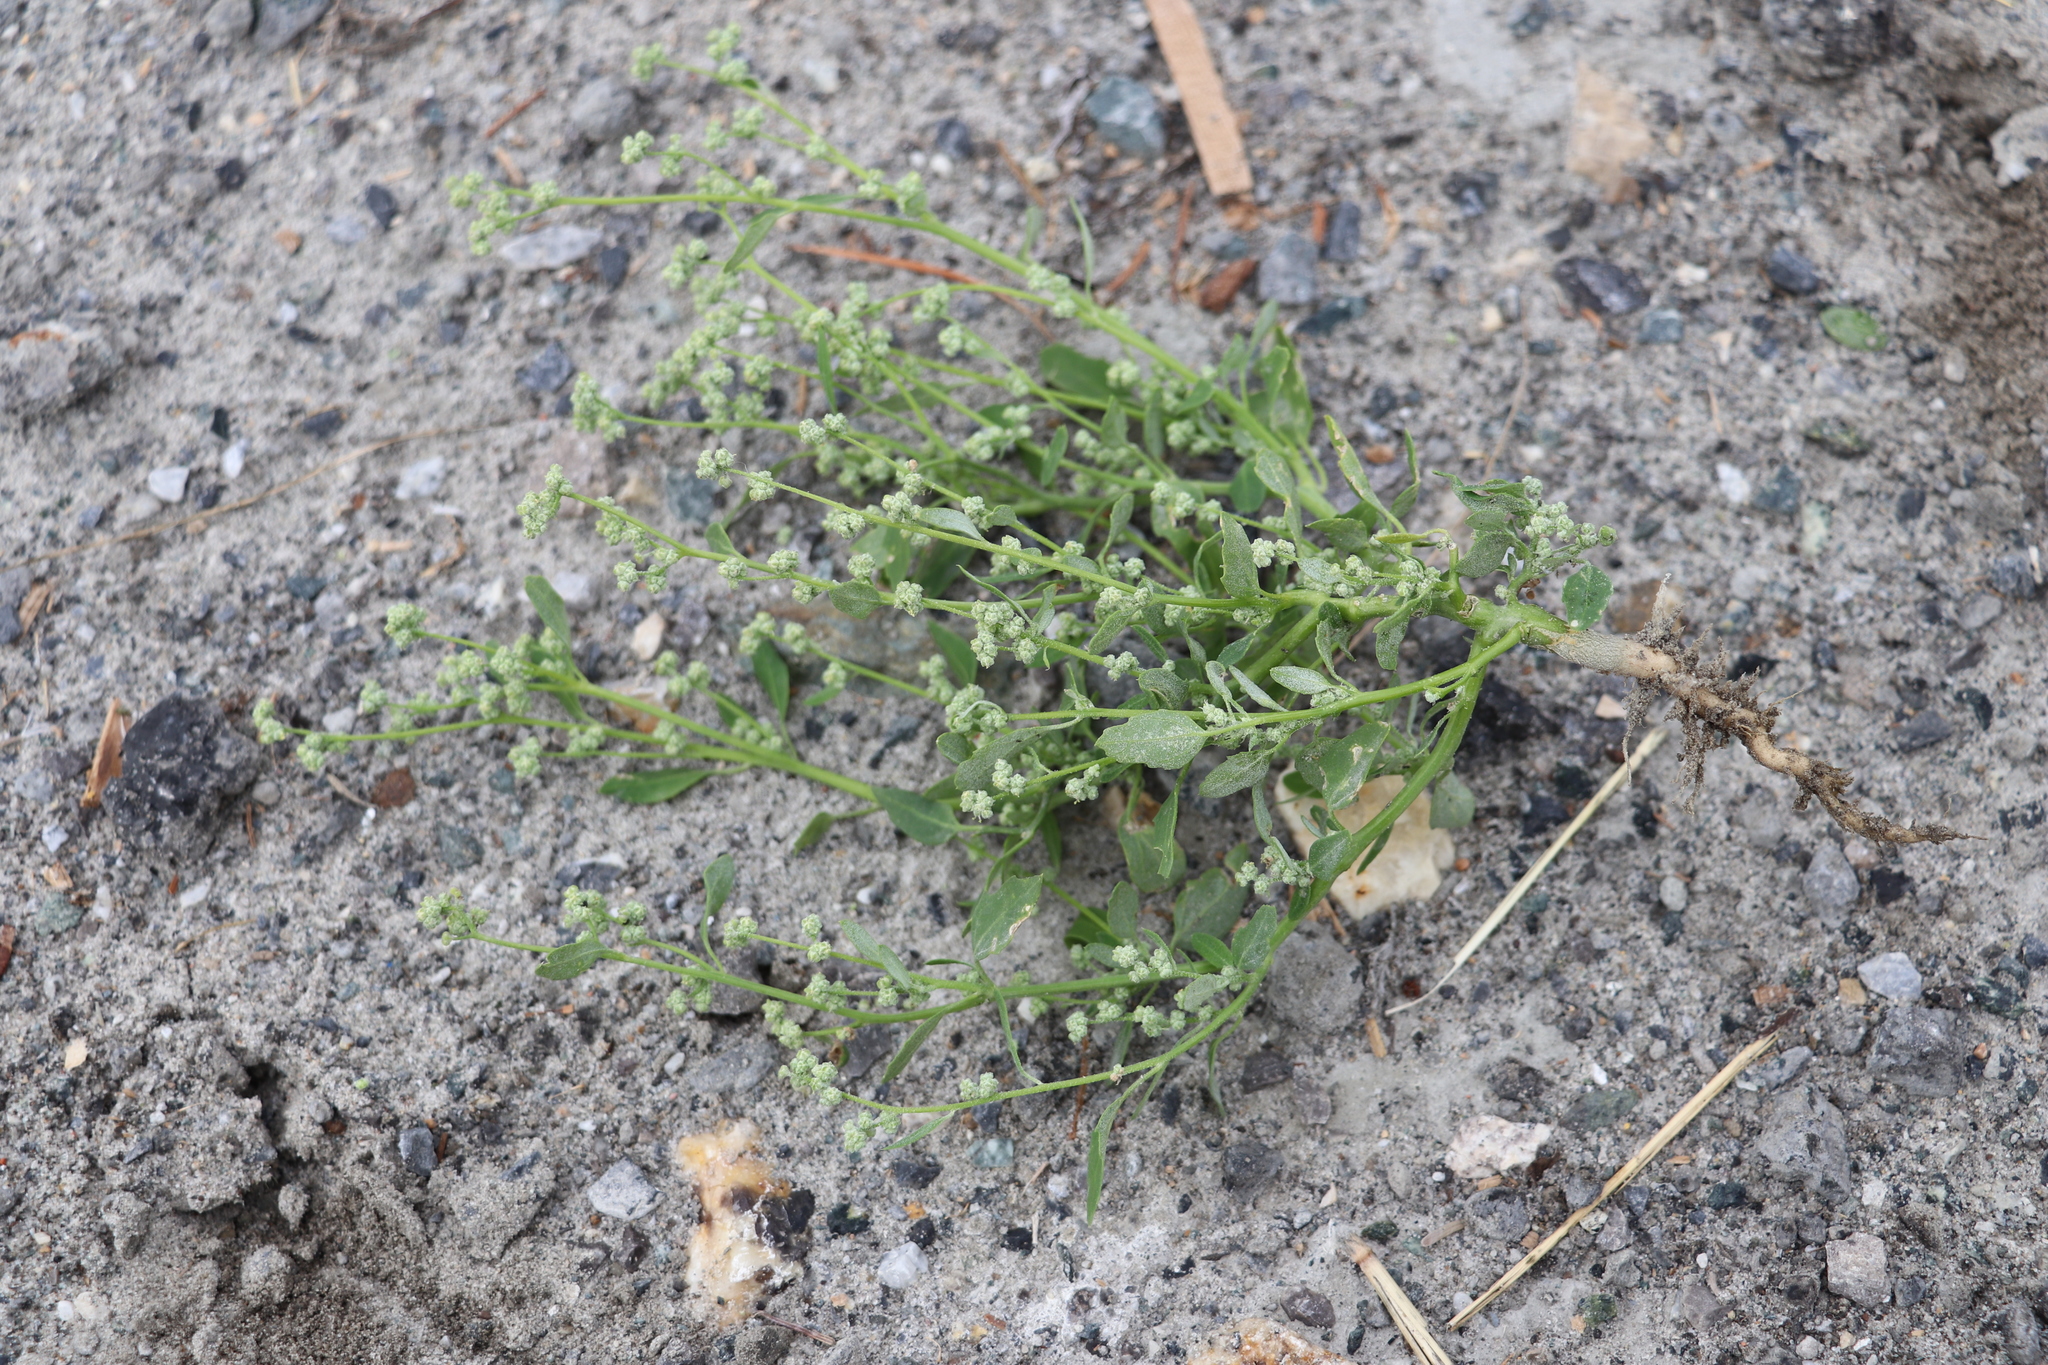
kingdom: Plantae
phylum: Tracheophyta
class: Magnoliopsida
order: Caryophyllales
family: Amaranthaceae
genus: Chenopodium
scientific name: Chenopodium album
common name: Fat-hen
